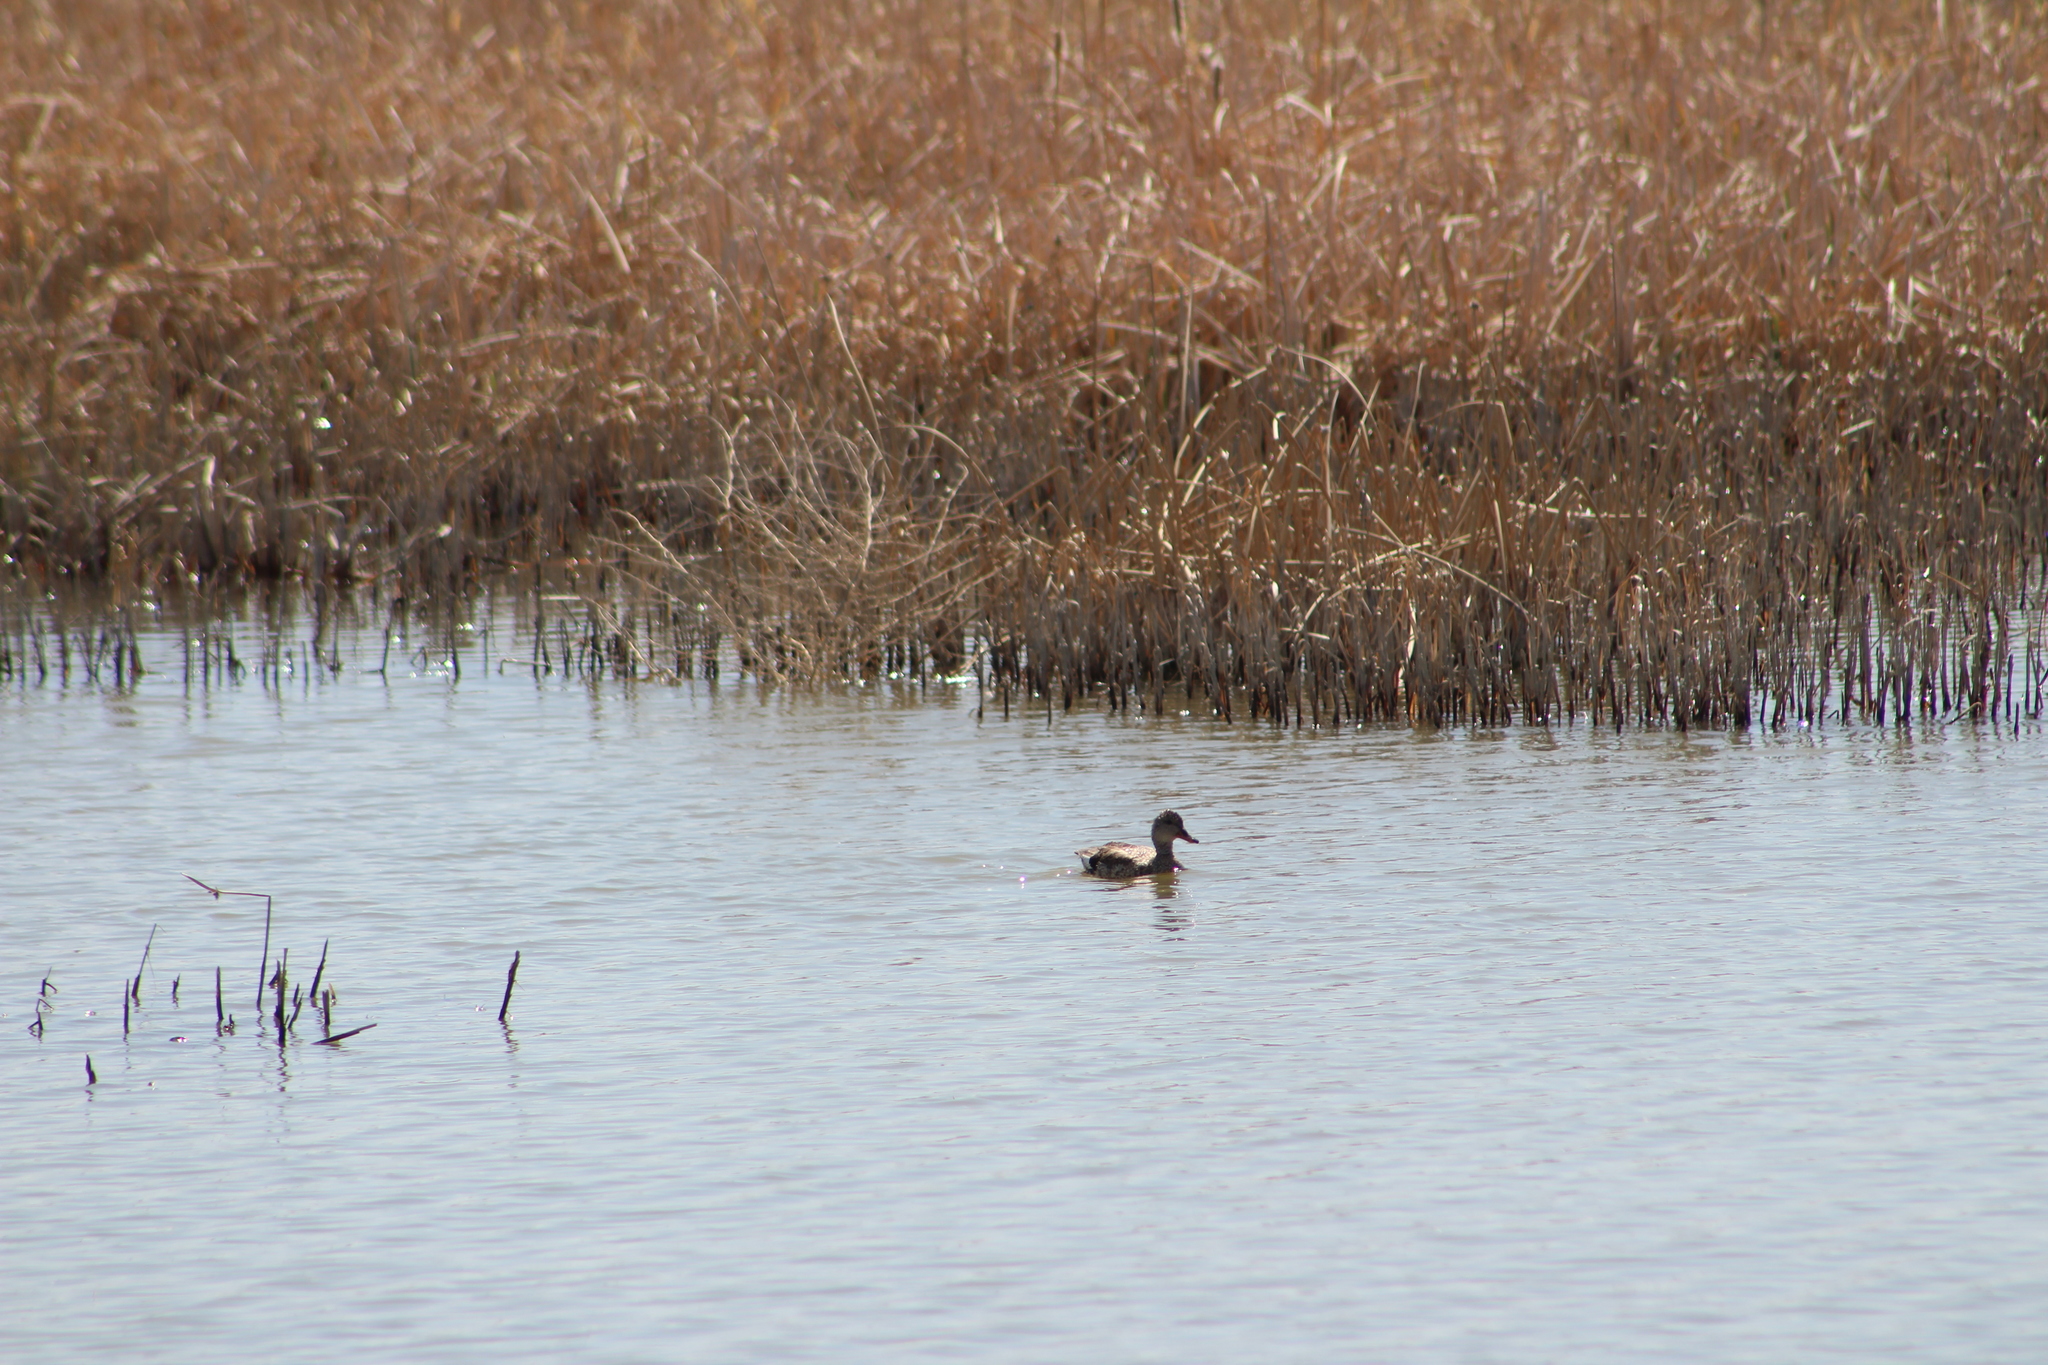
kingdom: Animalia
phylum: Chordata
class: Aves
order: Anseriformes
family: Anatidae
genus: Mareca
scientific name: Mareca strepera
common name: Gadwall
